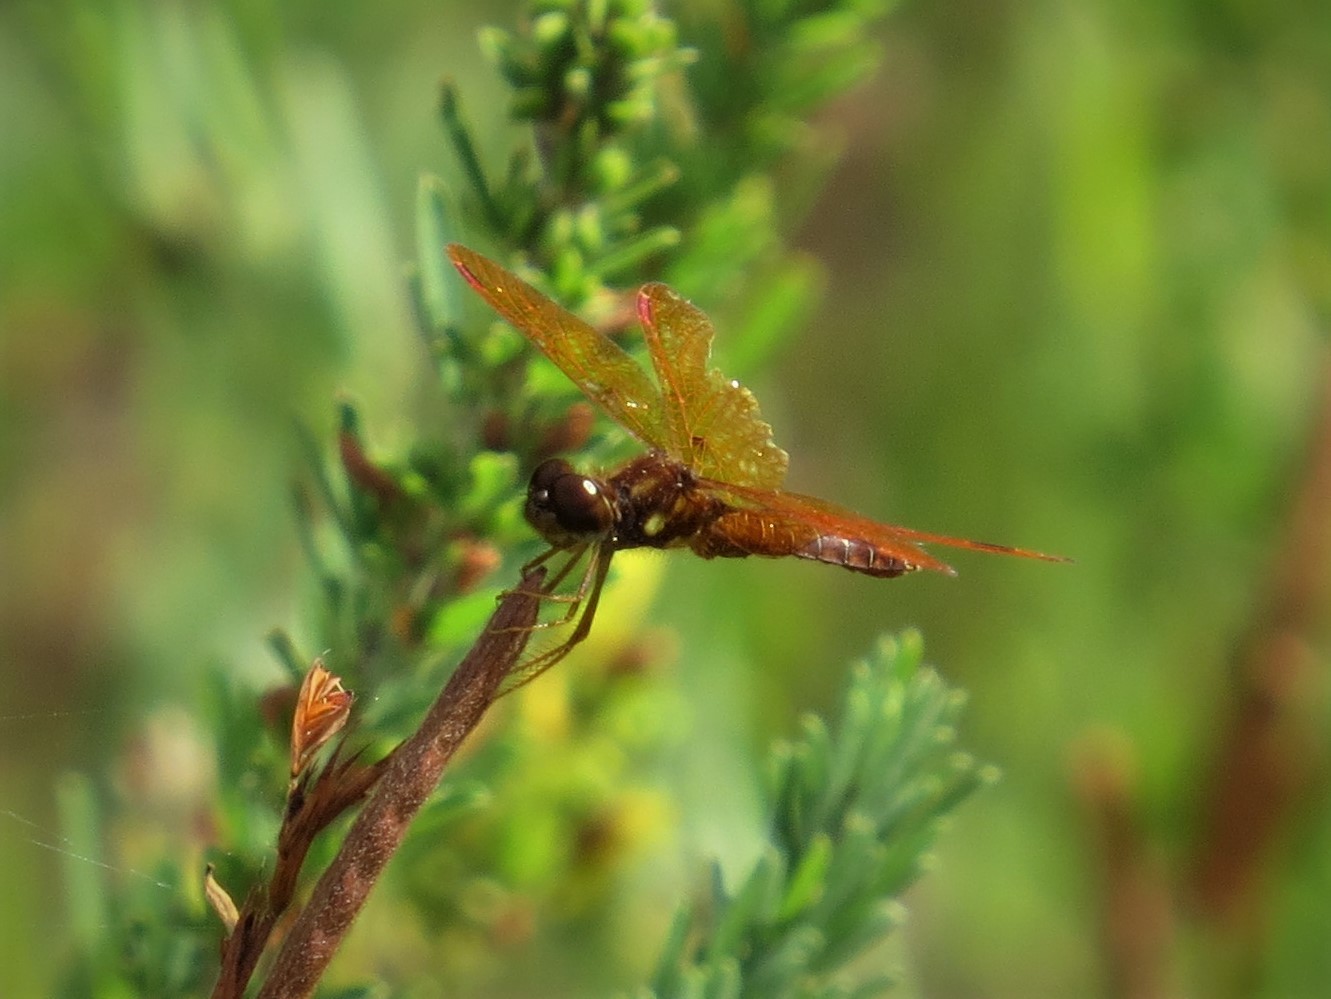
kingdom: Animalia
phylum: Arthropoda
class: Insecta
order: Odonata
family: Libellulidae
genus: Perithemis
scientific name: Perithemis tenera
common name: Eastern amberwing
